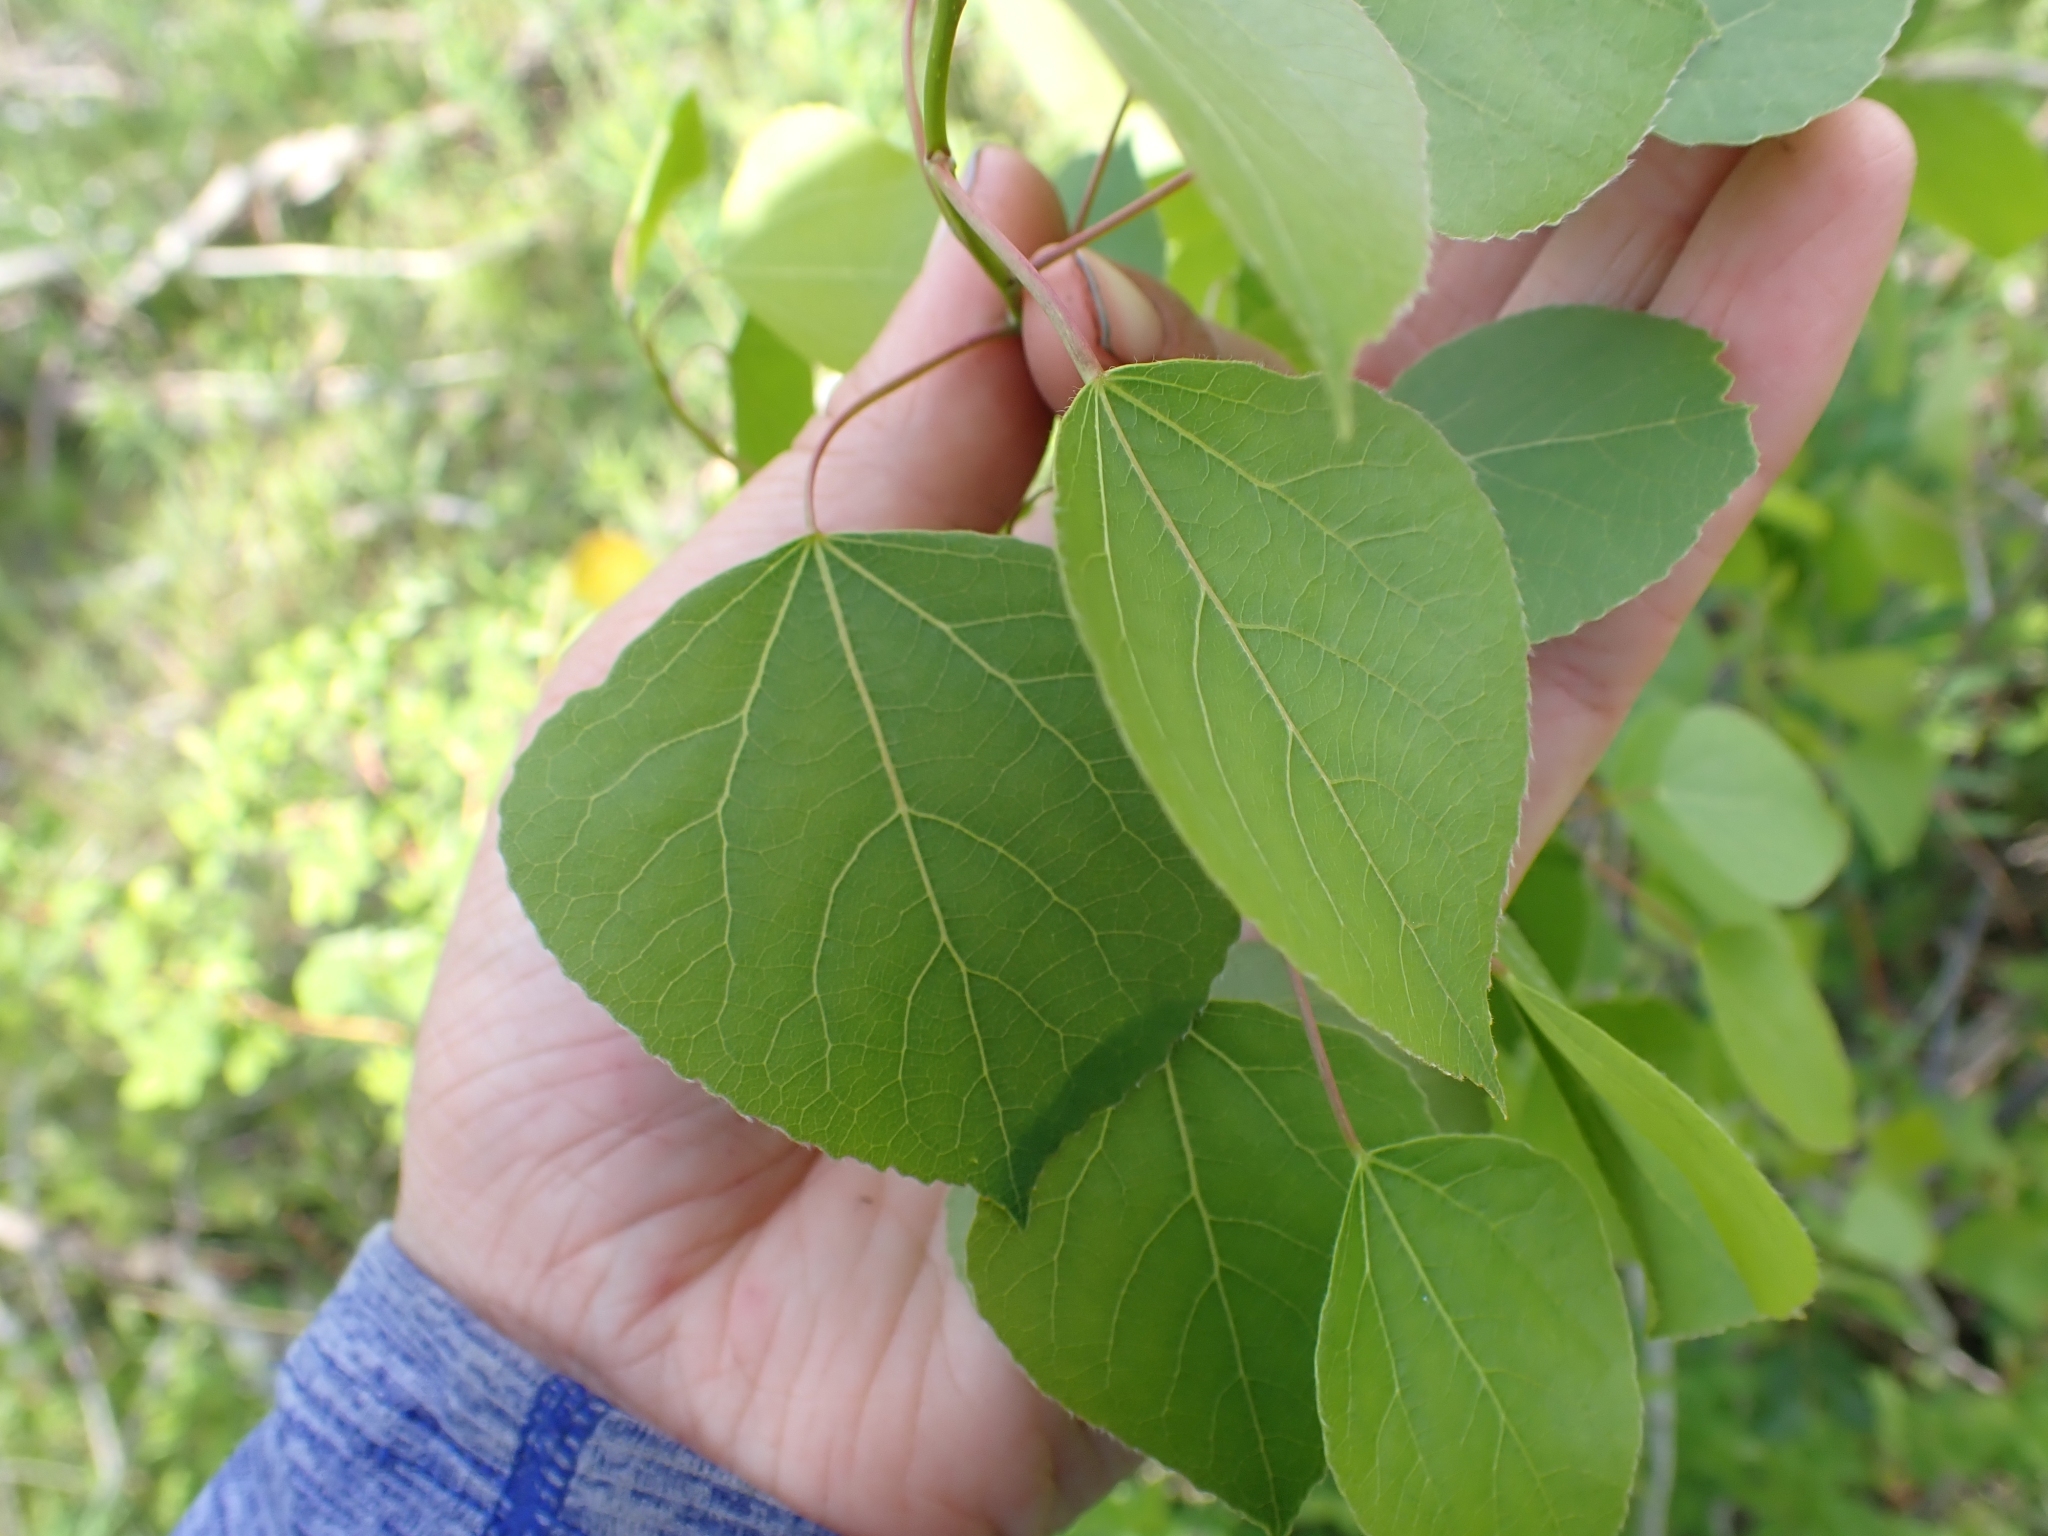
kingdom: Plantae
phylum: Tracheophyta
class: Magnoliopsida
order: Malpighiales
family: Salicaceae
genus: Populus
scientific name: Populus tremuloides
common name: Quaking aspen
